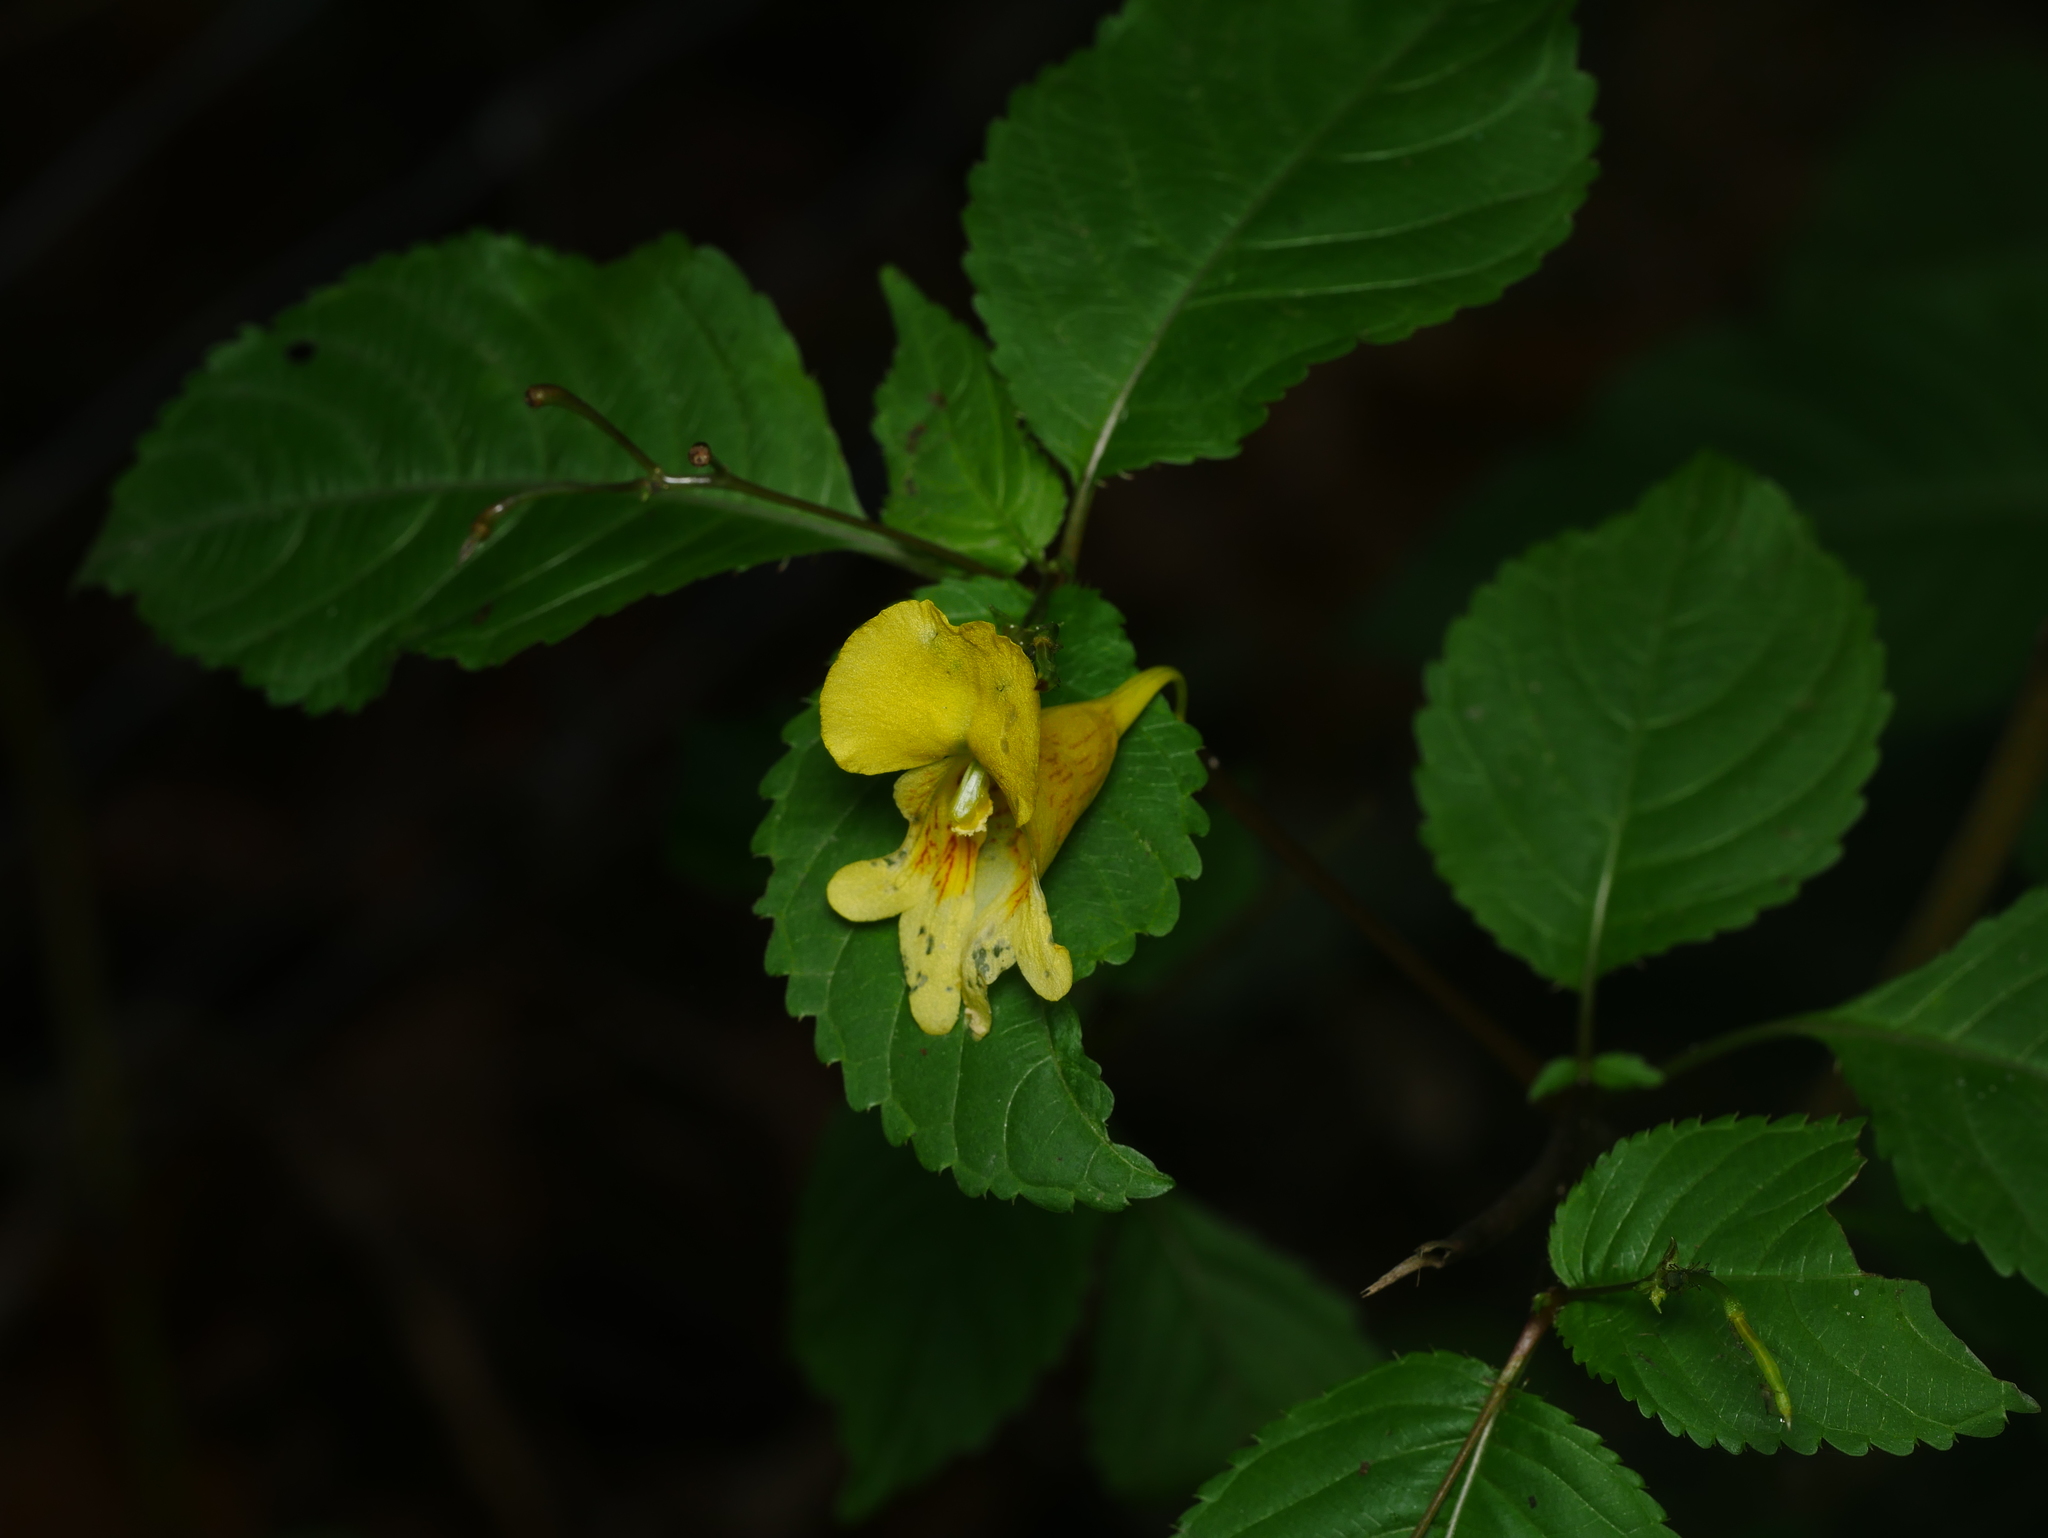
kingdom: Plantae
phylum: Tracheophyta
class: Magnoliopsida
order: Ericales
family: Balsaminaceae
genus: Impatiens
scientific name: Impatiens edgeworthii
